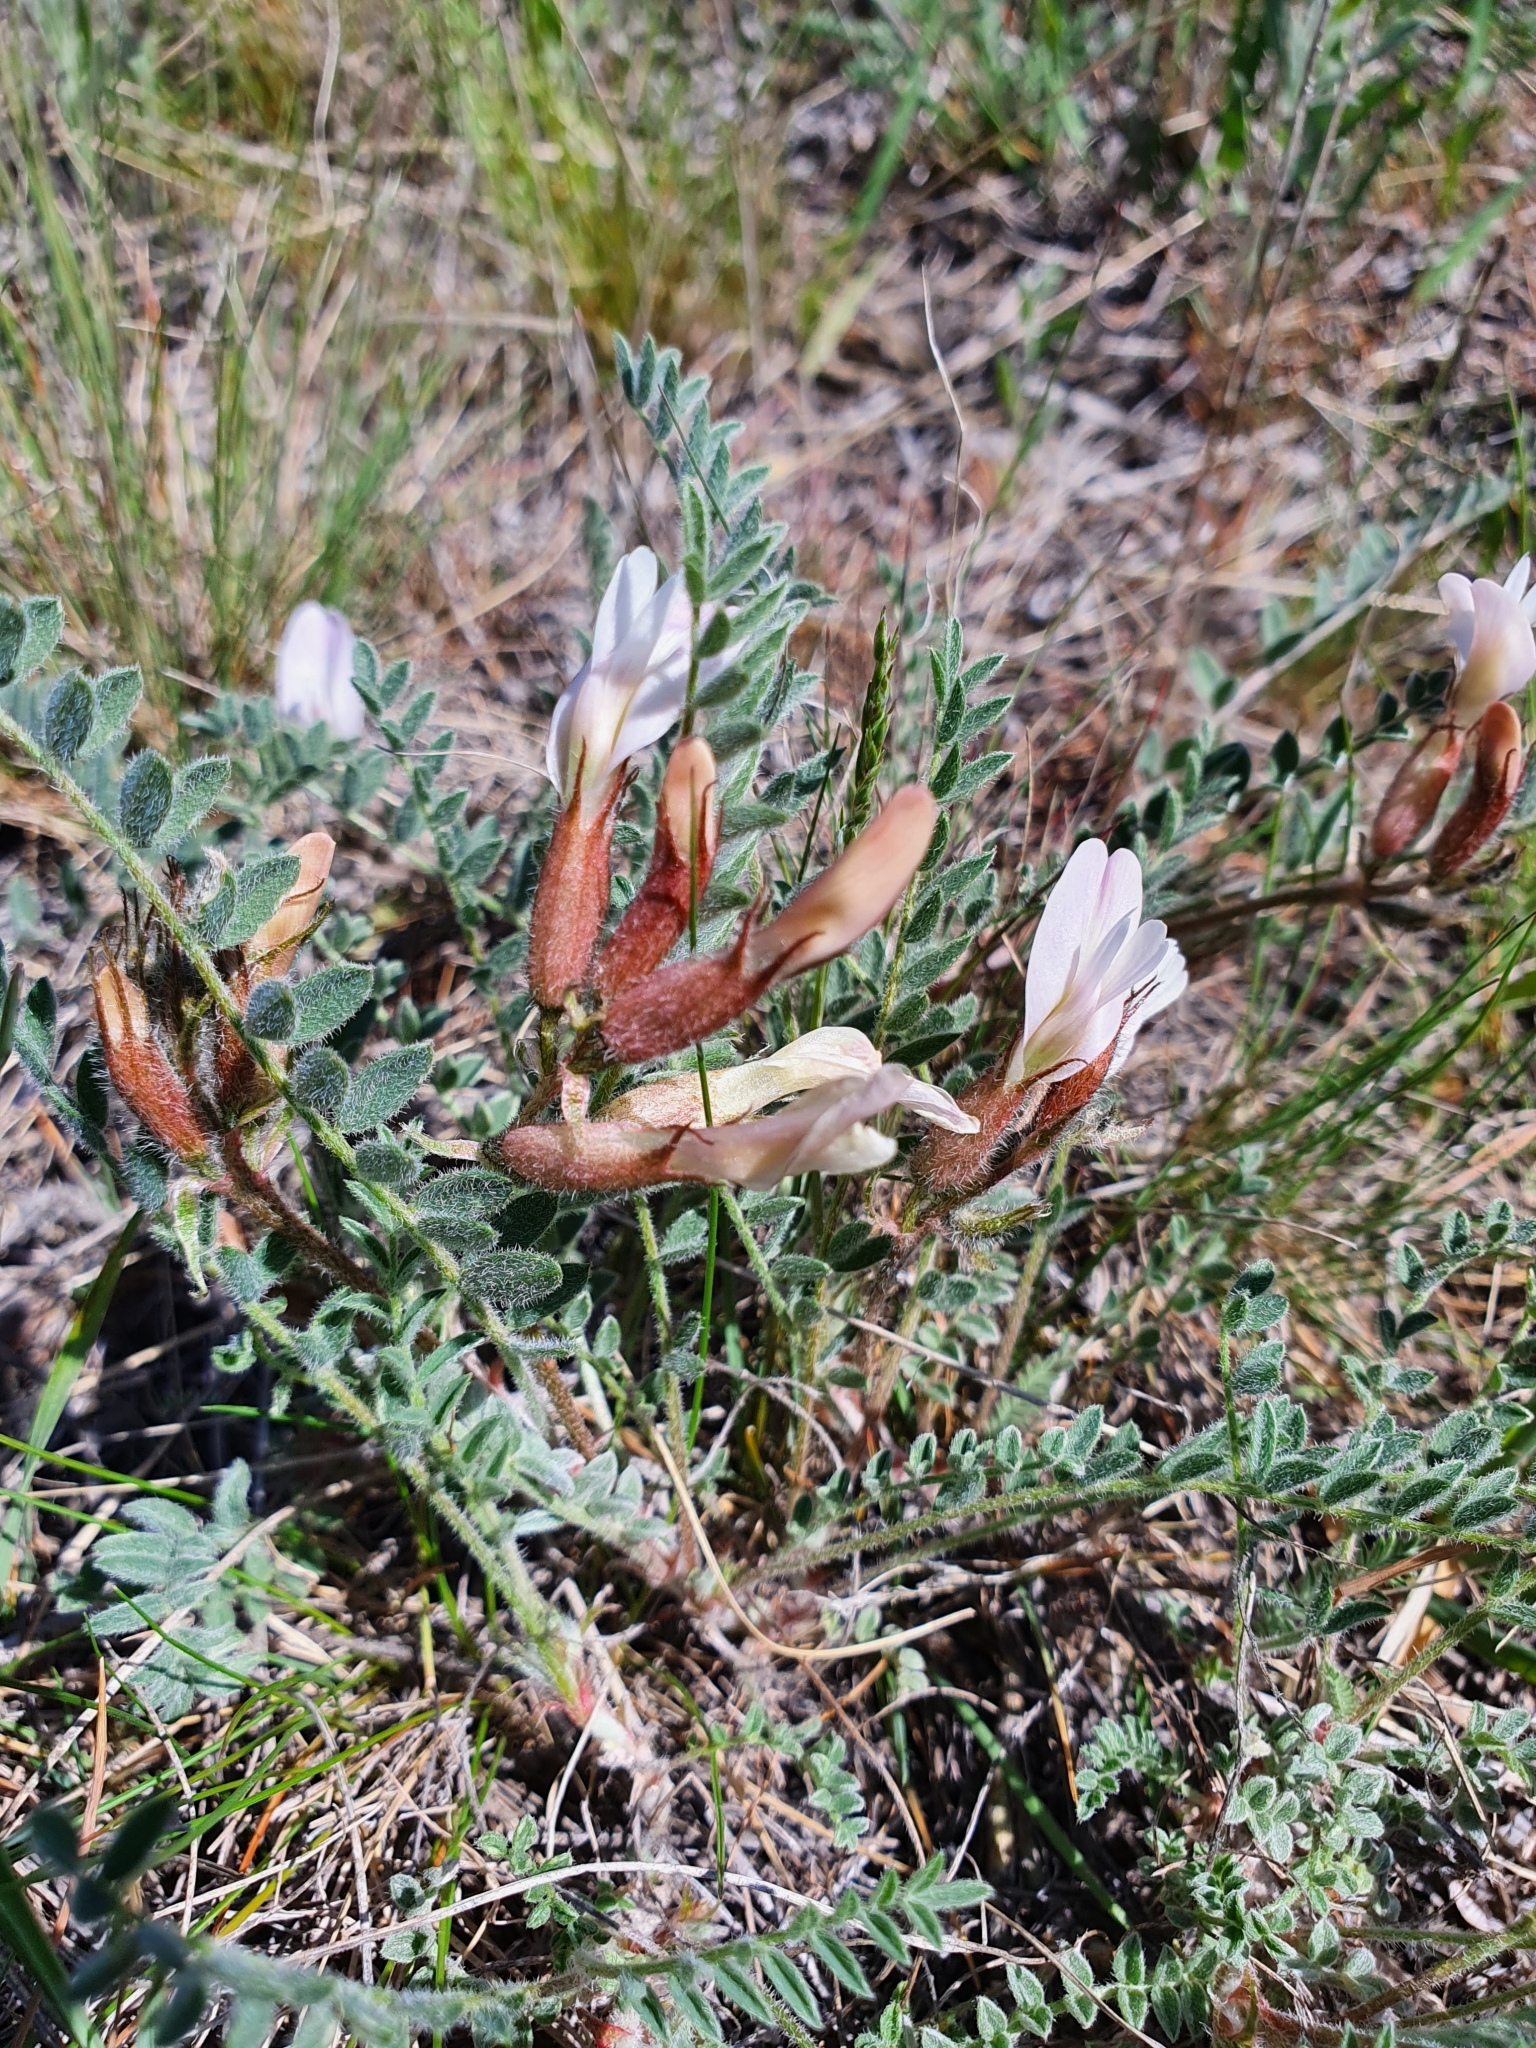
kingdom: Plantae
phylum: Tracheophyta
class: Magnoliopsida
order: Fabales
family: Fabaceae
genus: Astragalus
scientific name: Astragalus rupifragus
